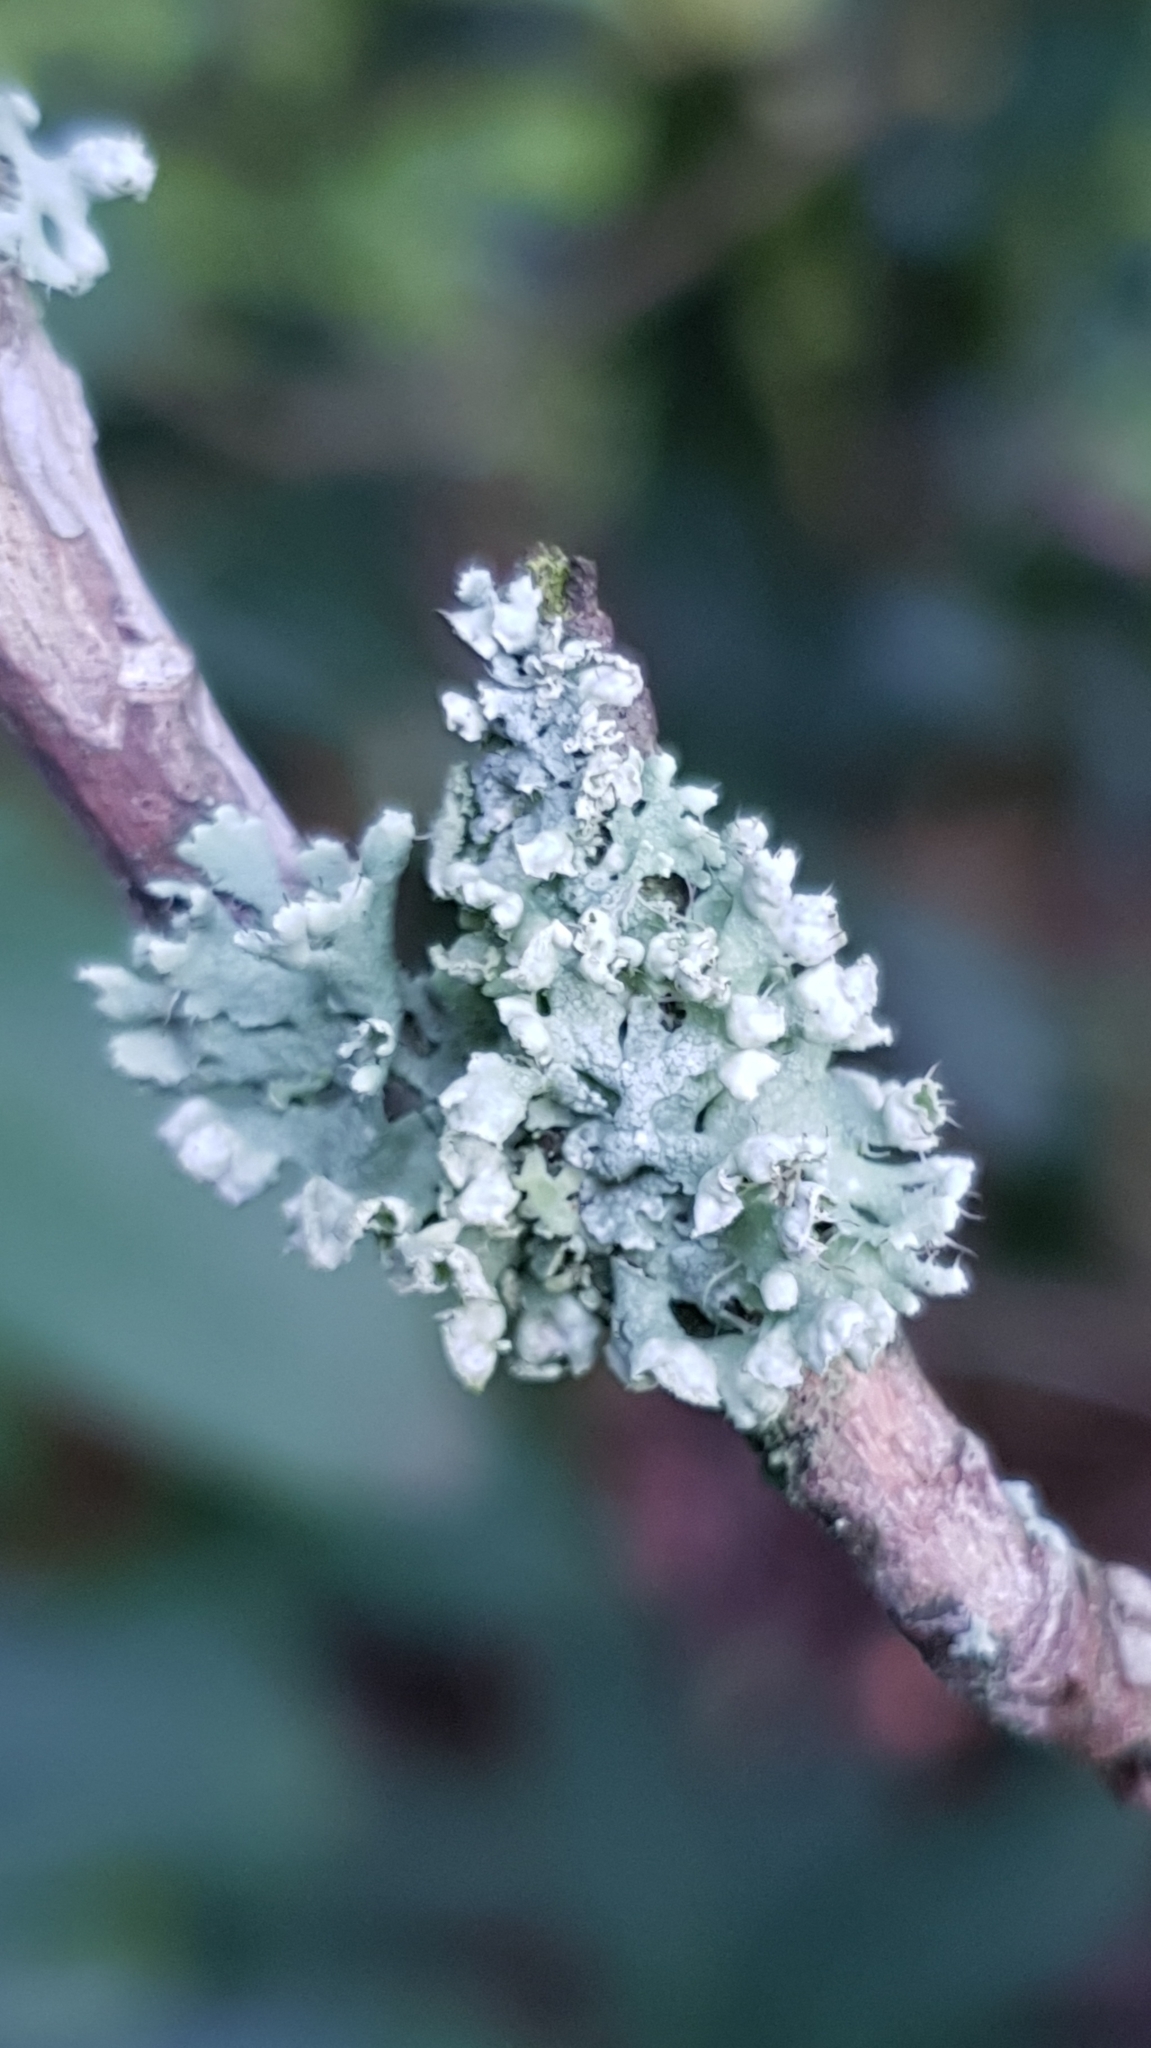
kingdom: Fungi
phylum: Ascomycota
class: Lecanoromycetes
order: Caliciales
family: Physciaceae
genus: Physcia
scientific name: Physcia adscendens
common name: Hooded rosette lichen
